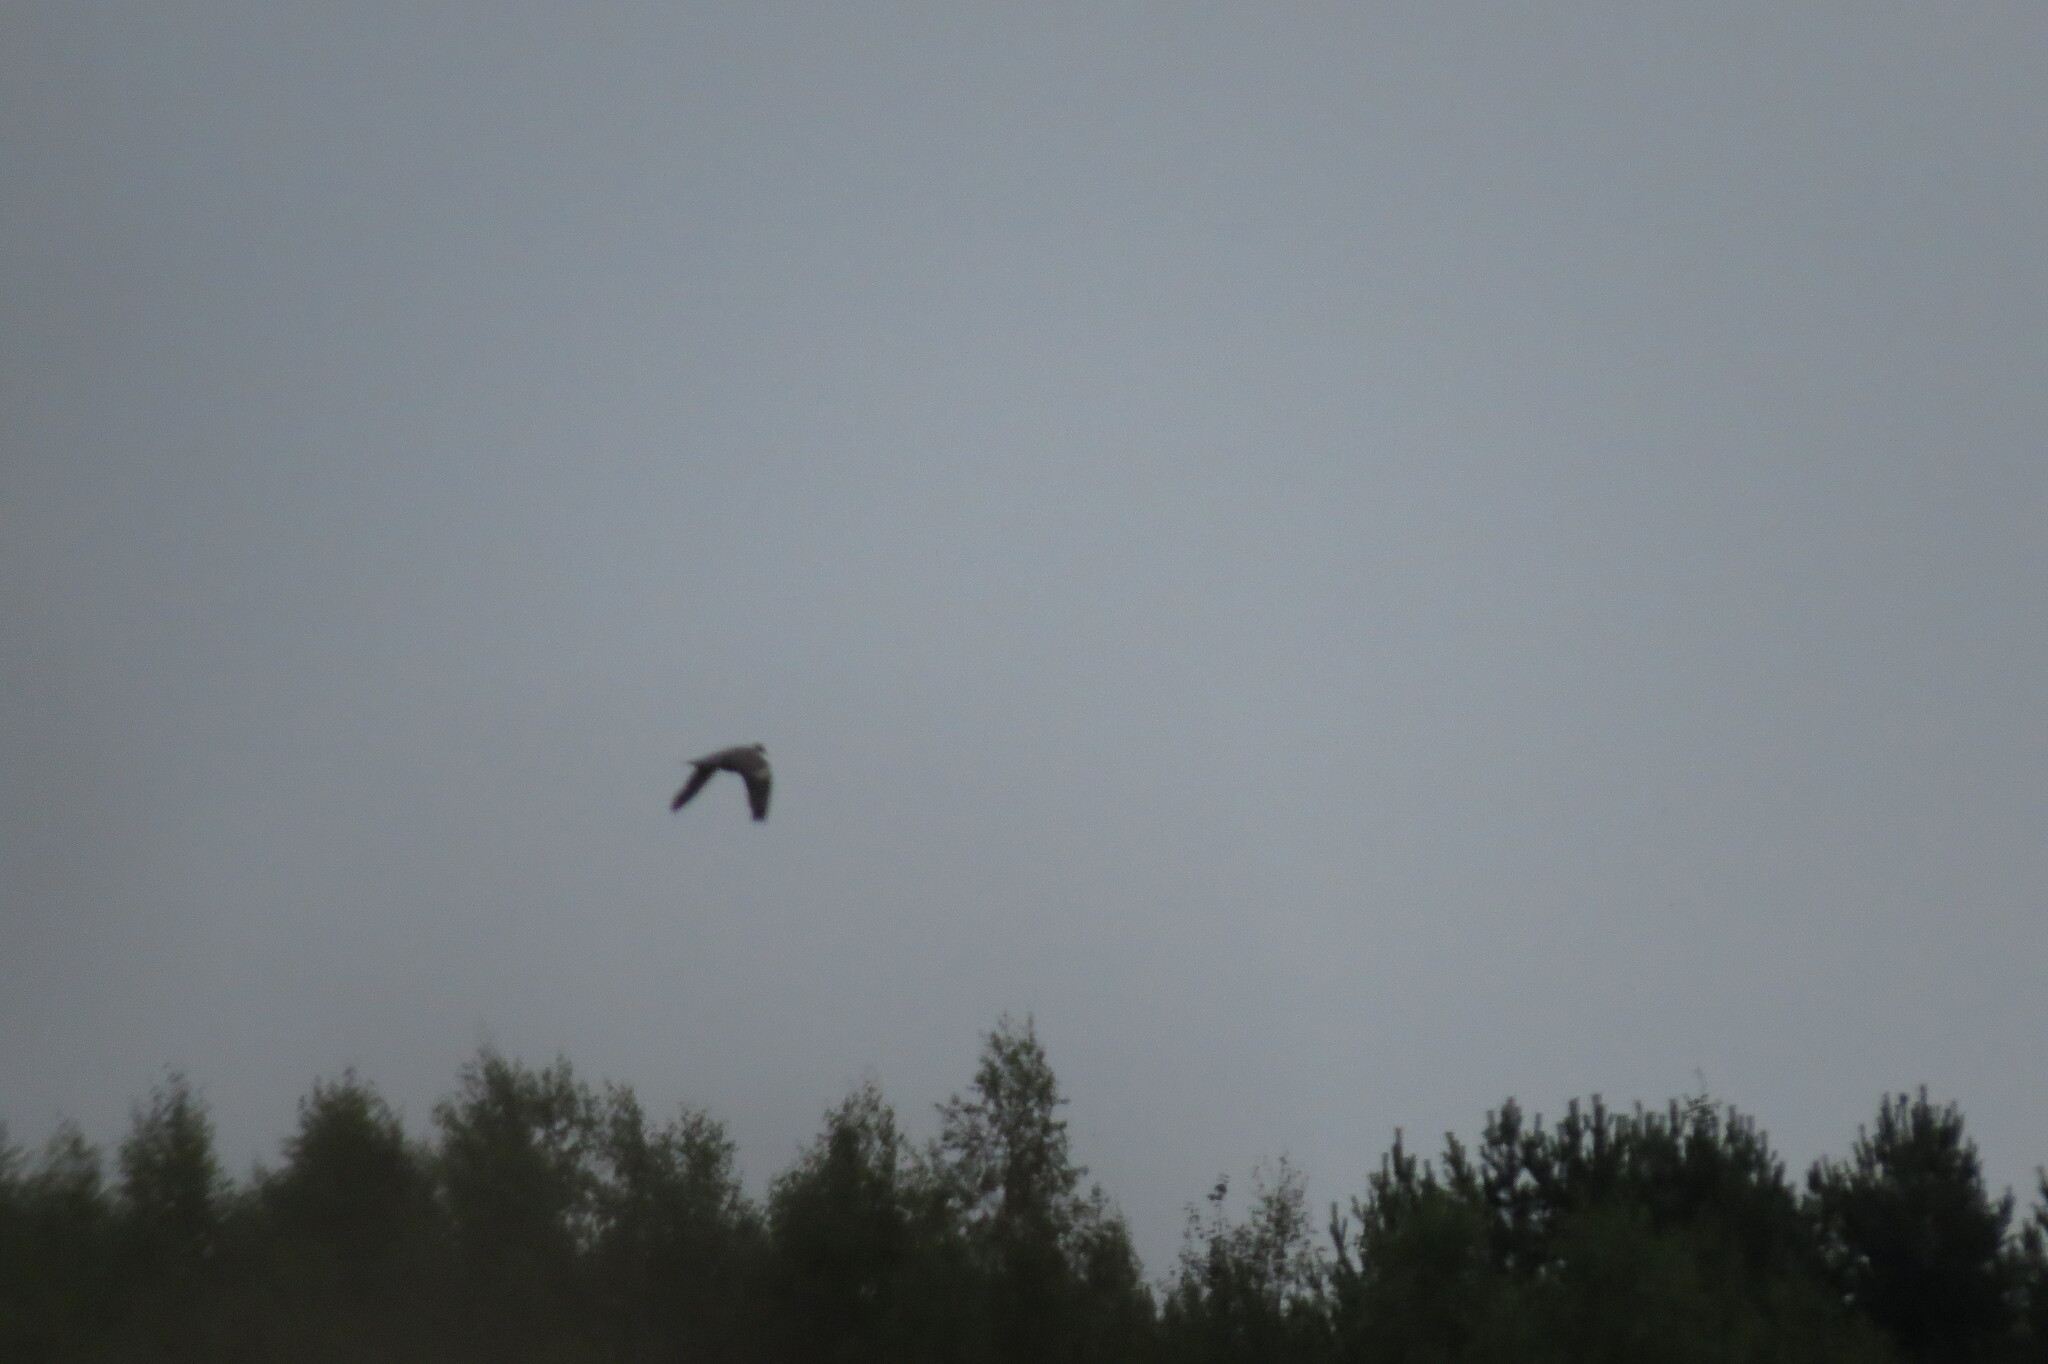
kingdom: Animalia
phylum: Chordata
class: Aves
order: Columbiformes
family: Columbidae
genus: Columba
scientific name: Columba palumbus
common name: Common wood pigeon
